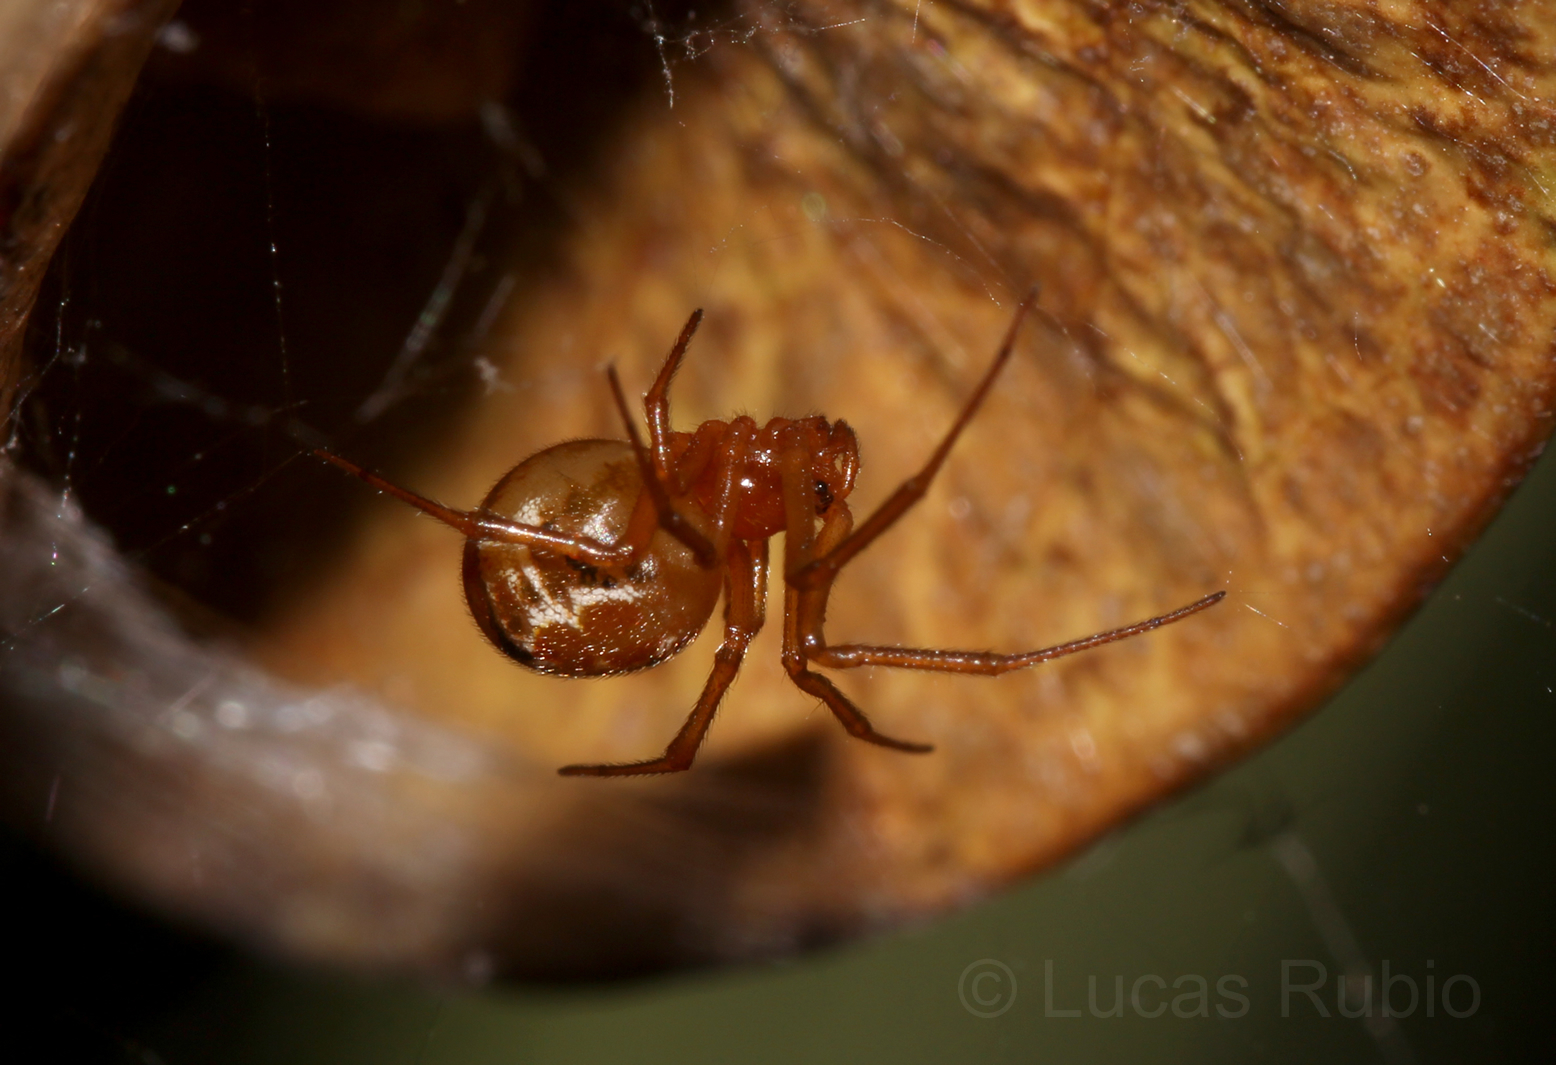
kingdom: Animalia
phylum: Arthropoda
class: Arachnida
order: Araneae
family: Theridiidae
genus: Nihonhimea
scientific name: Nihonhimea tesselata
